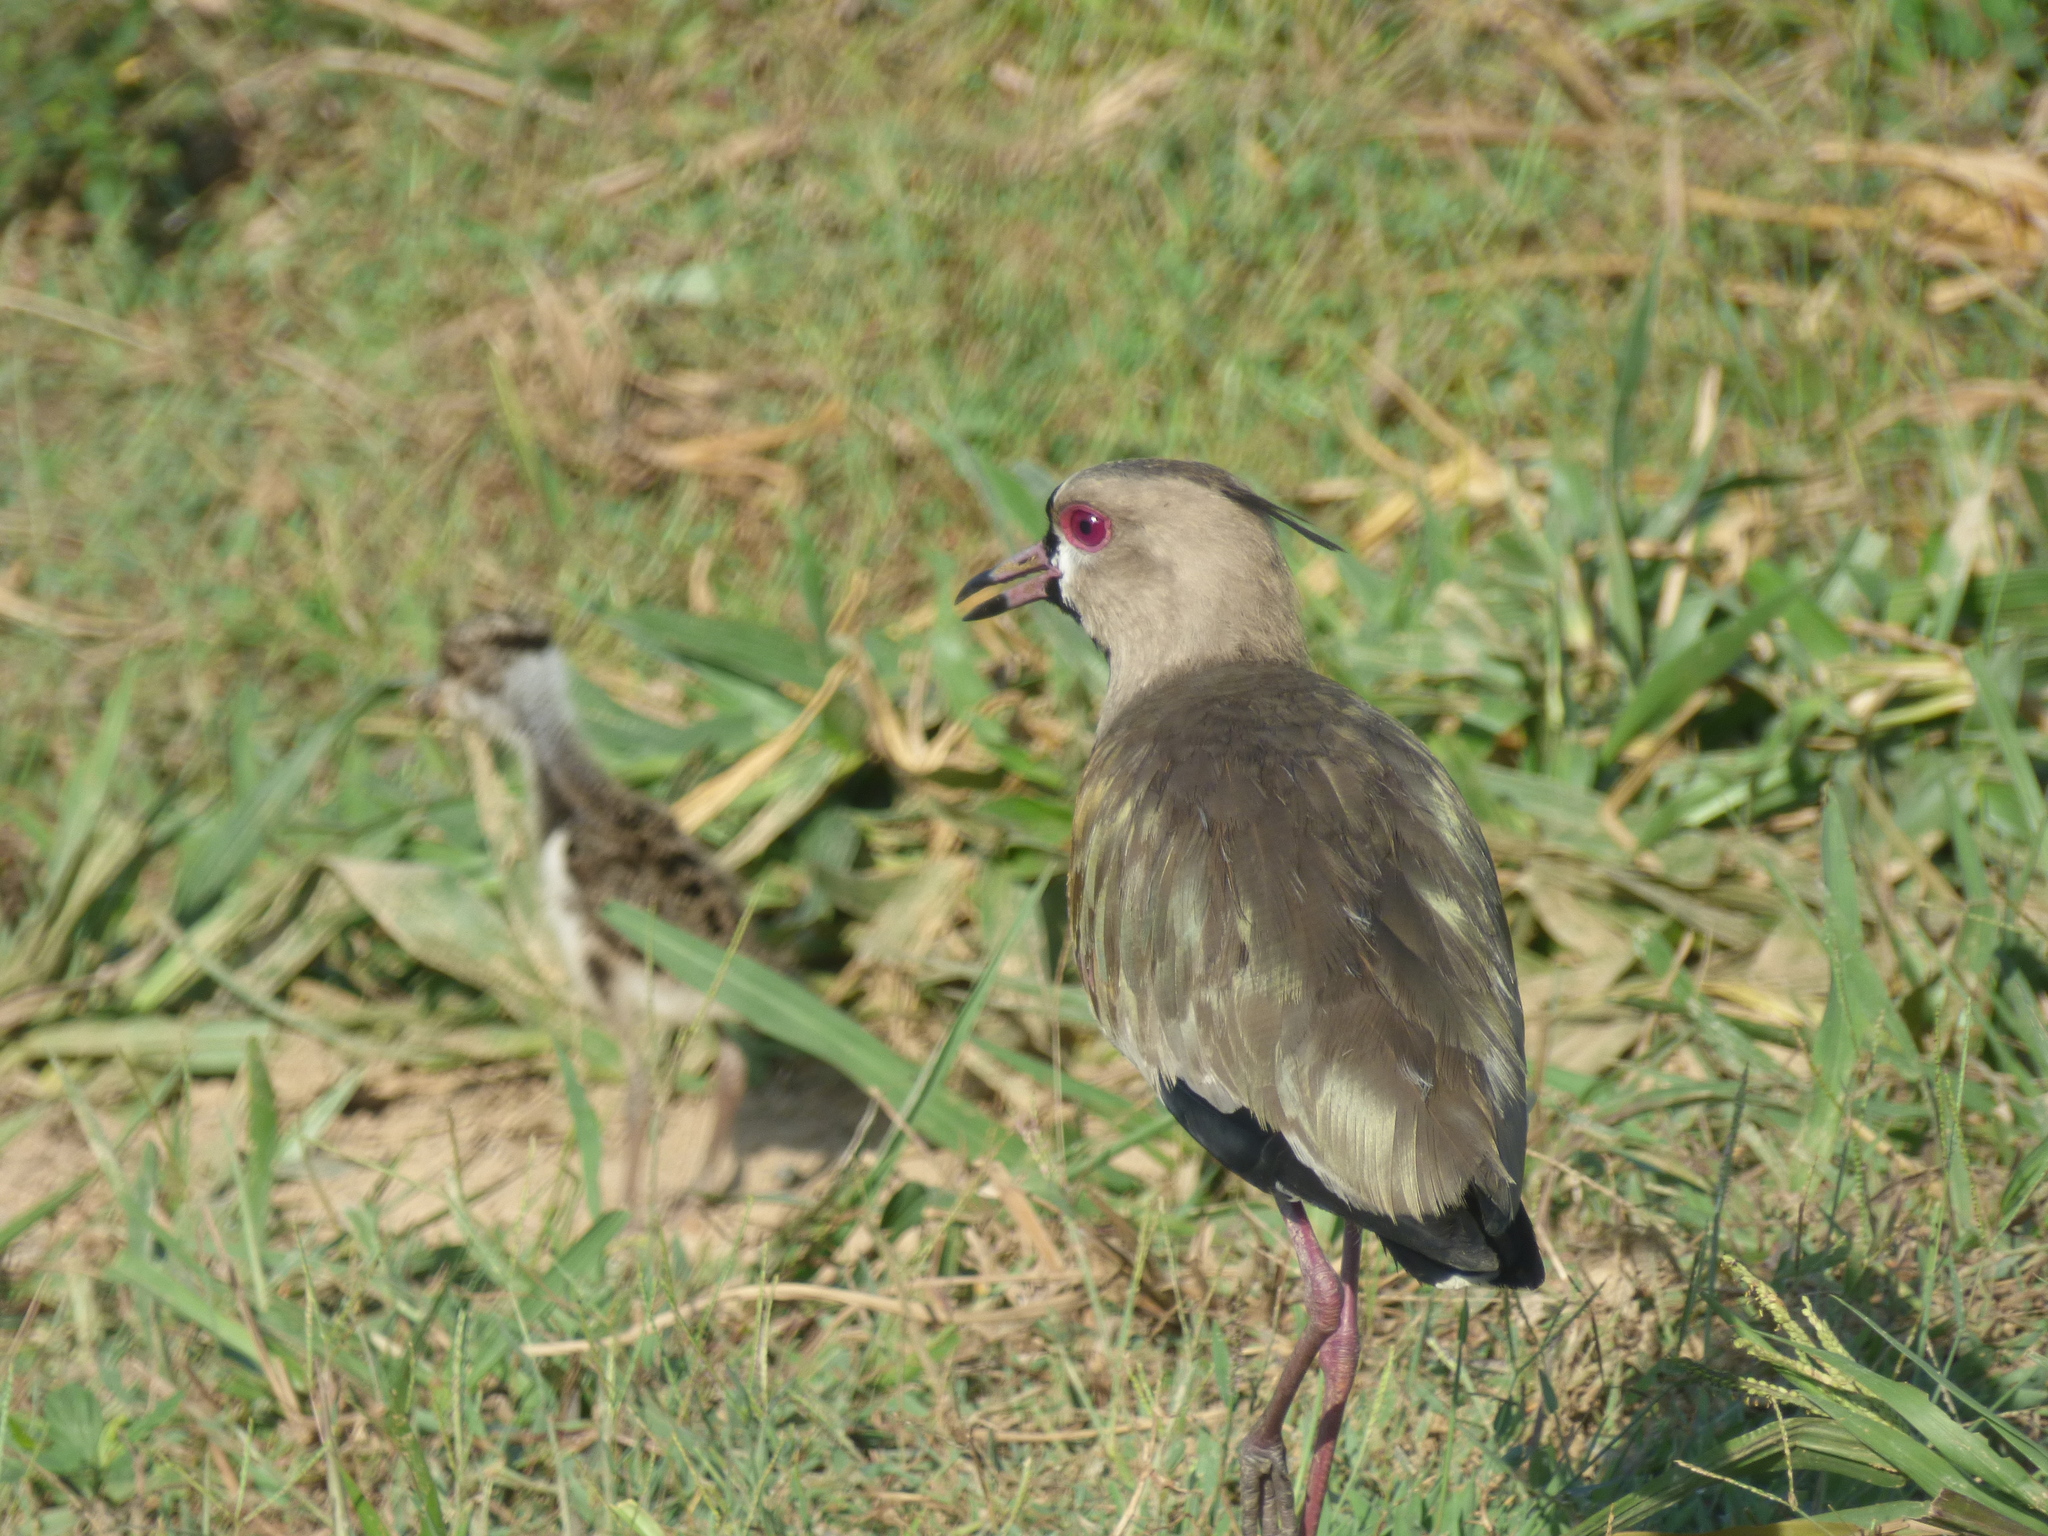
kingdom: Animalia
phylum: Chordata
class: Aves
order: Charadriiformes
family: Charadriidae
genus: Vanellus
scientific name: Vanellus chilensis
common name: Southern lapwing
